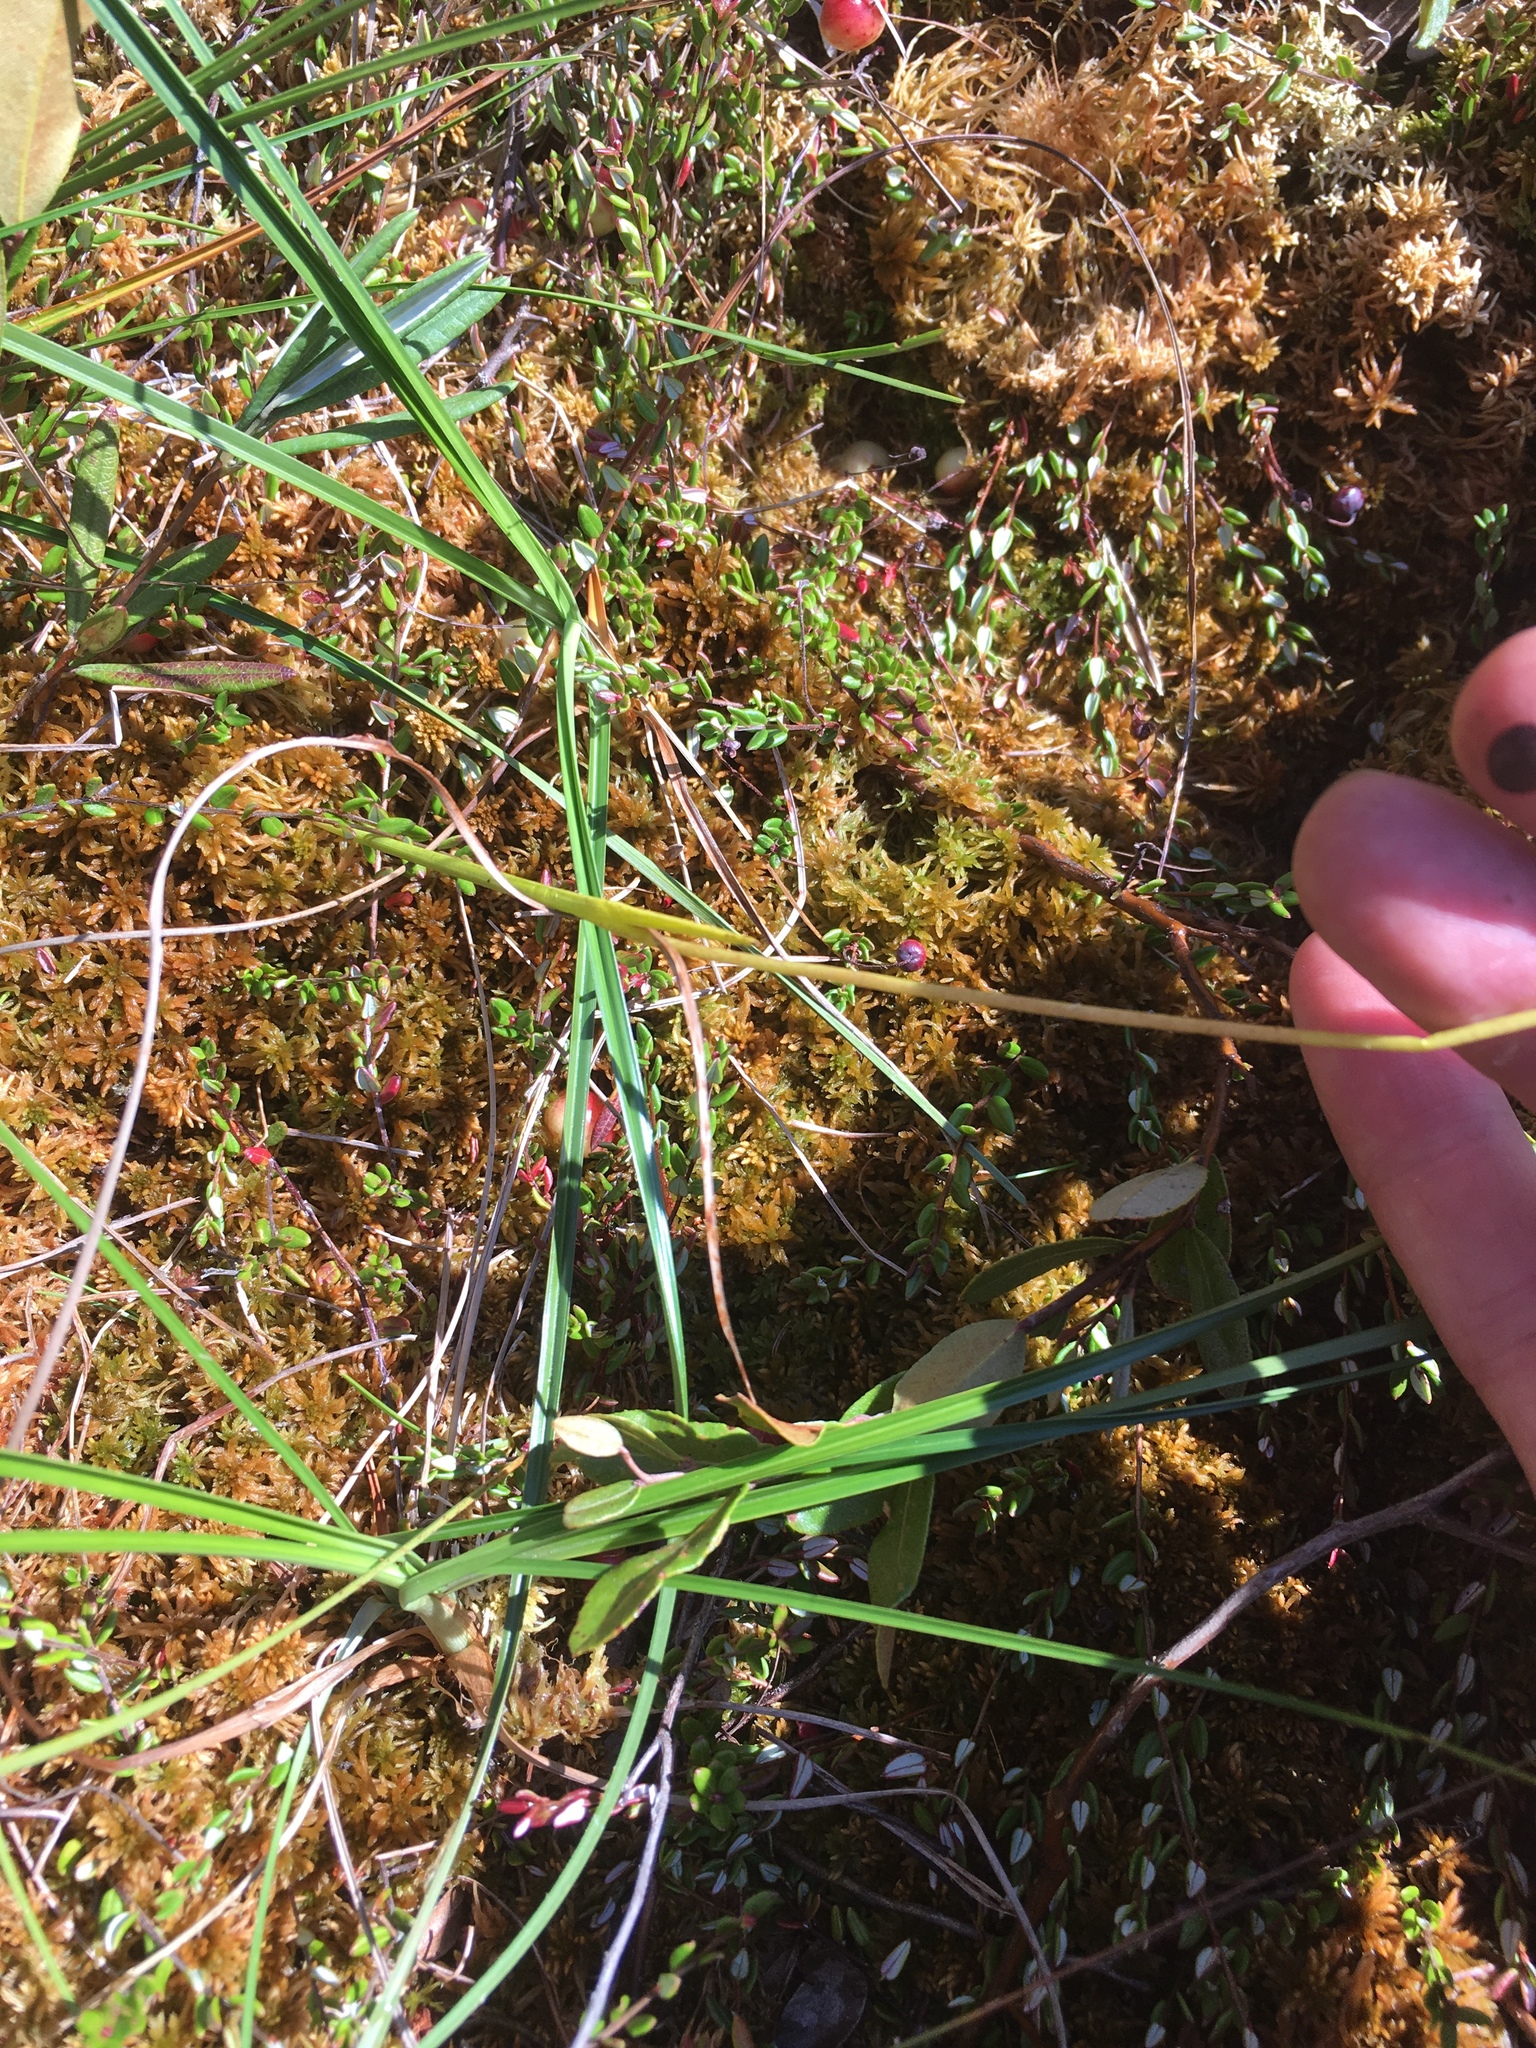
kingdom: Plantae
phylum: Tracheophyta
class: Liliopsida
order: Asparagales
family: Orchidaceae
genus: Calopogon
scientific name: Calopogon tuberosus
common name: Grass-pink
